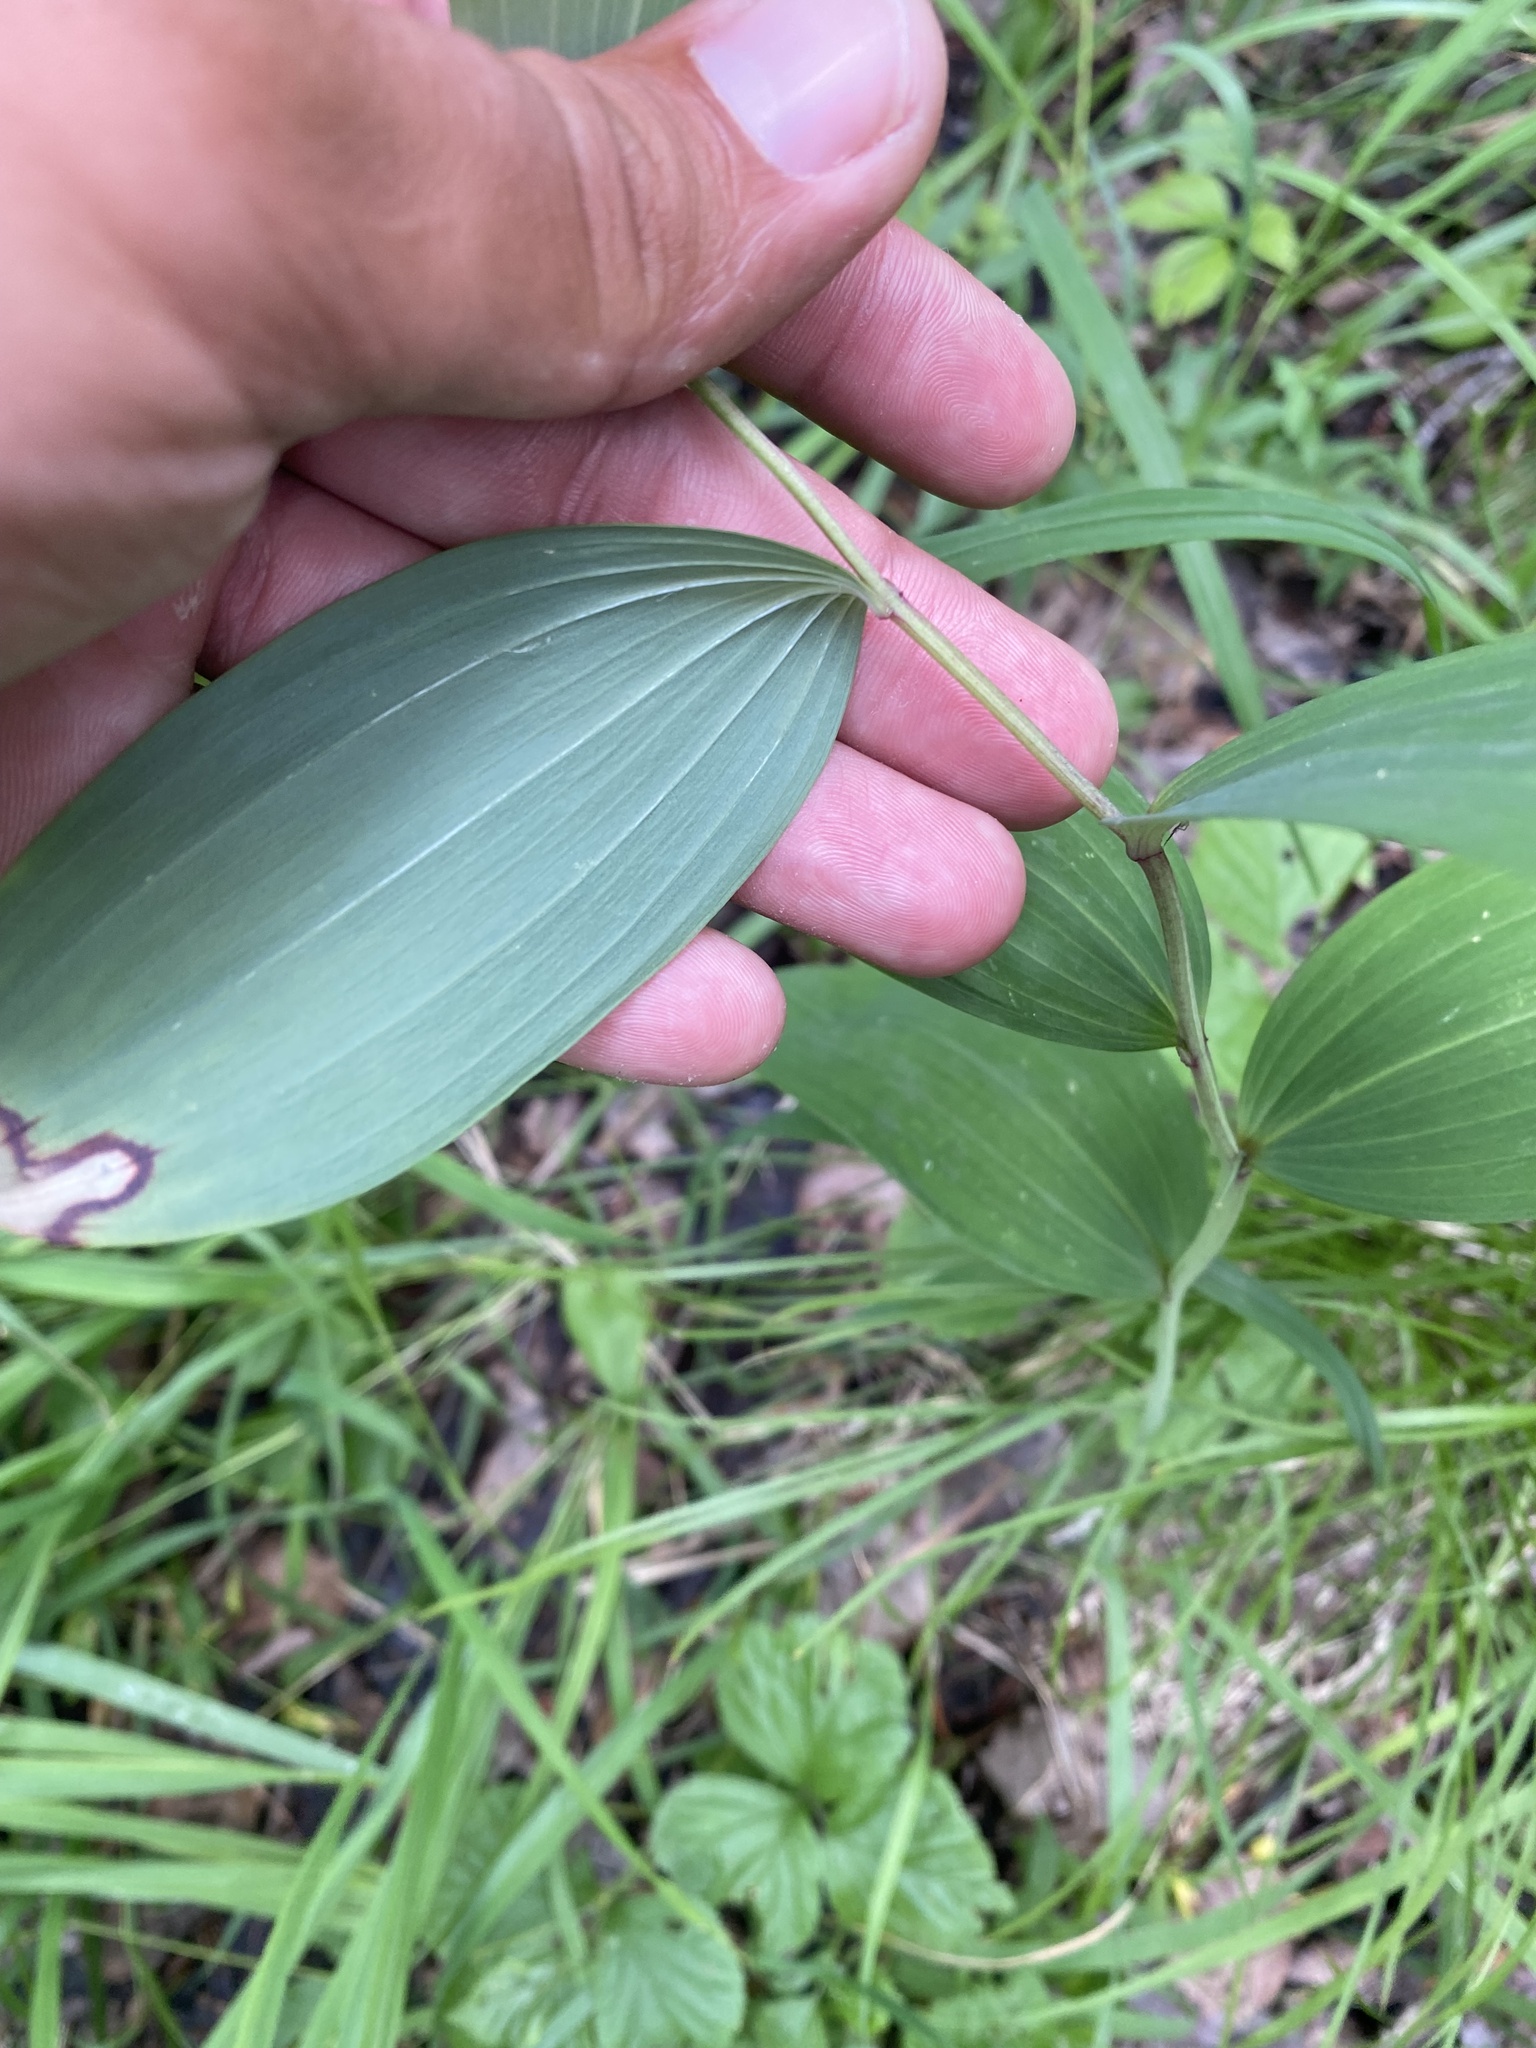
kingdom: Plantae
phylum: Tracheophyta
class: Liliopsida
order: Asparagales
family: Asparagaceae
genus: Polygonatum
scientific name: Polygonatum odoratum
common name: Angular solomon's-seal
